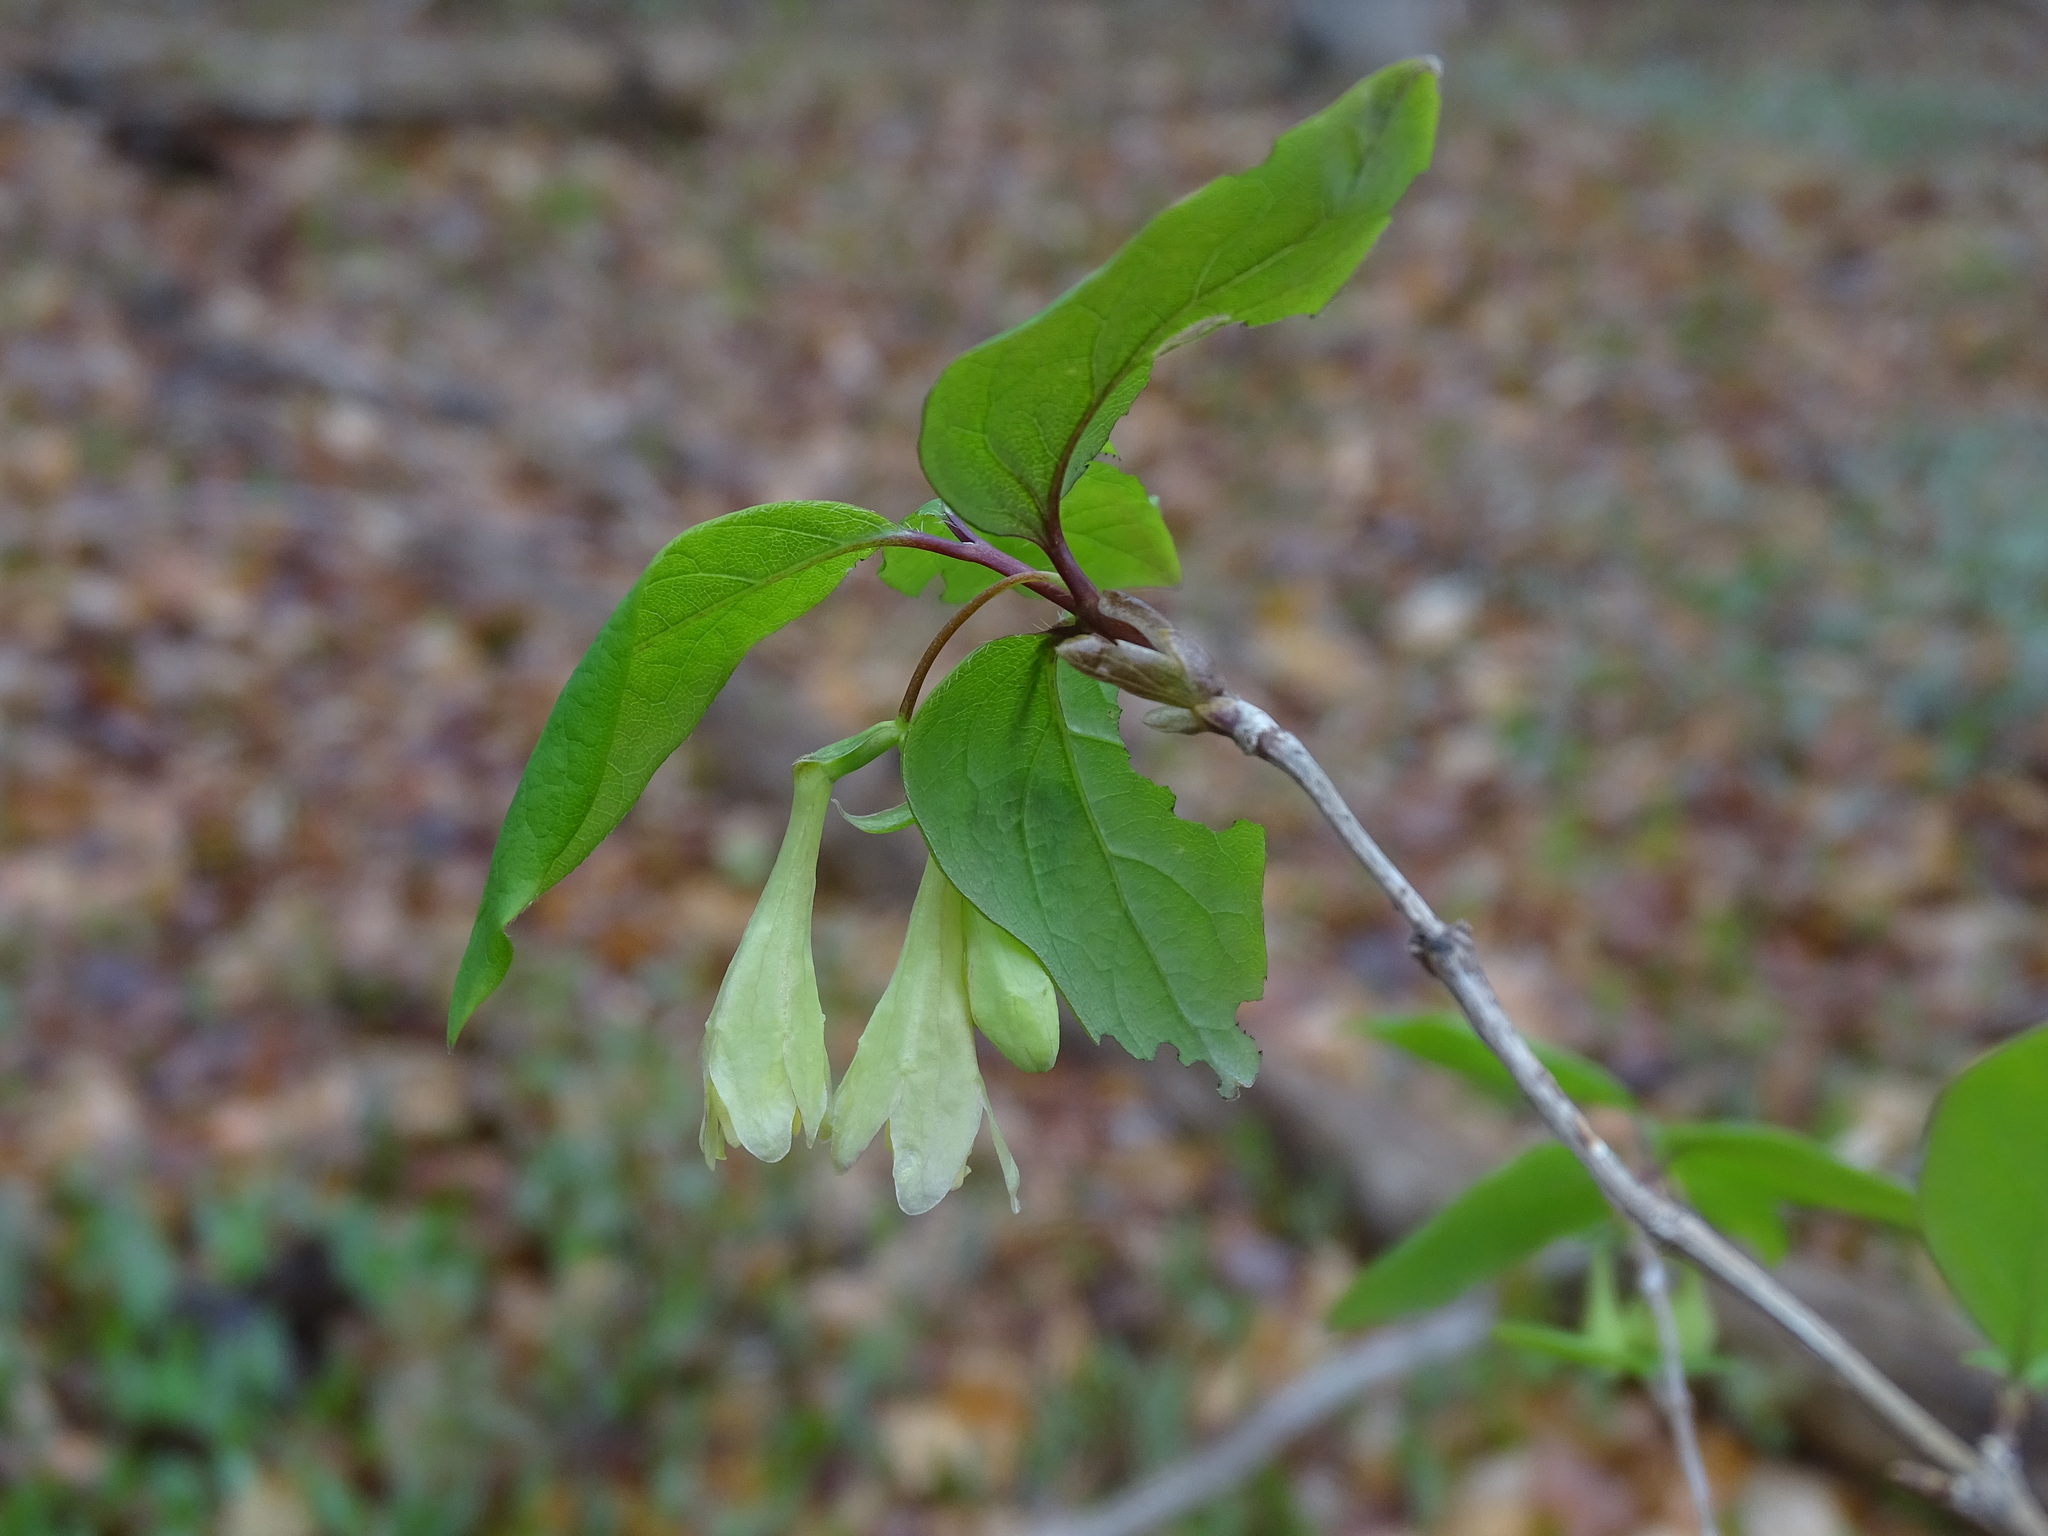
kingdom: Plantae
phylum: Tracheophyta
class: Magnoliopsida
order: Dipsacales
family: Caprifoliaceae
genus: Lonicera
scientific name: Lonicera canadensis
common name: American fly-honeysuckle
